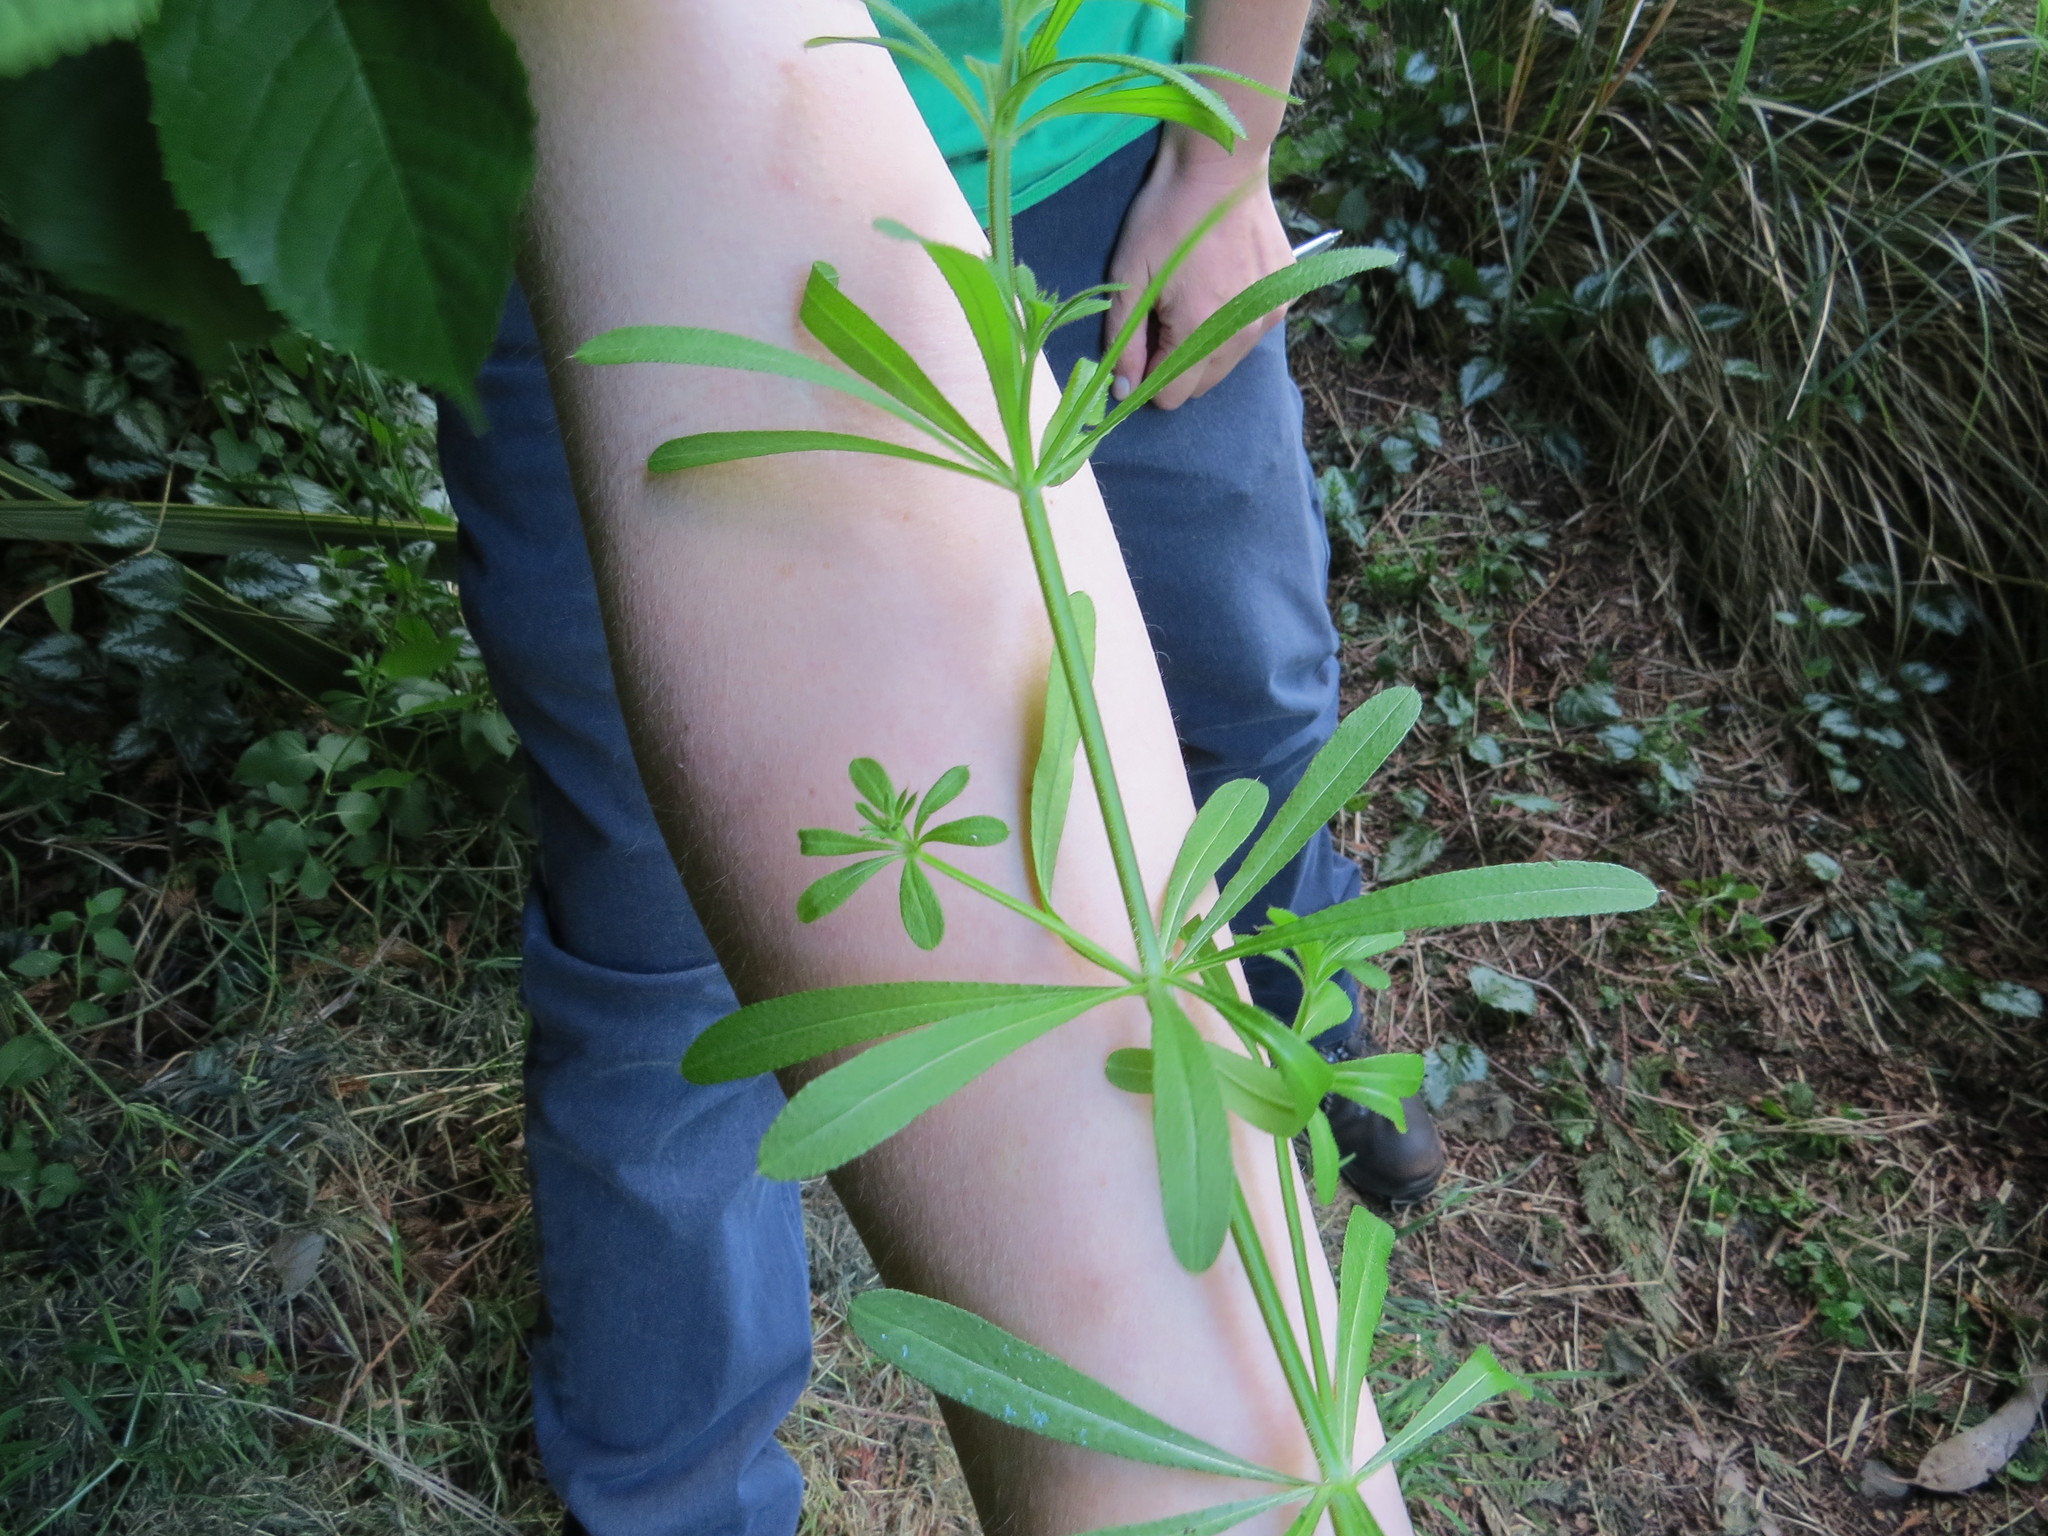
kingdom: Plantae
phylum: Tracheophyta
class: Magnoliopsida
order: Gentianales
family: Rubiaceae
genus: Galium
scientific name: Galium aparine
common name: Cleavers
